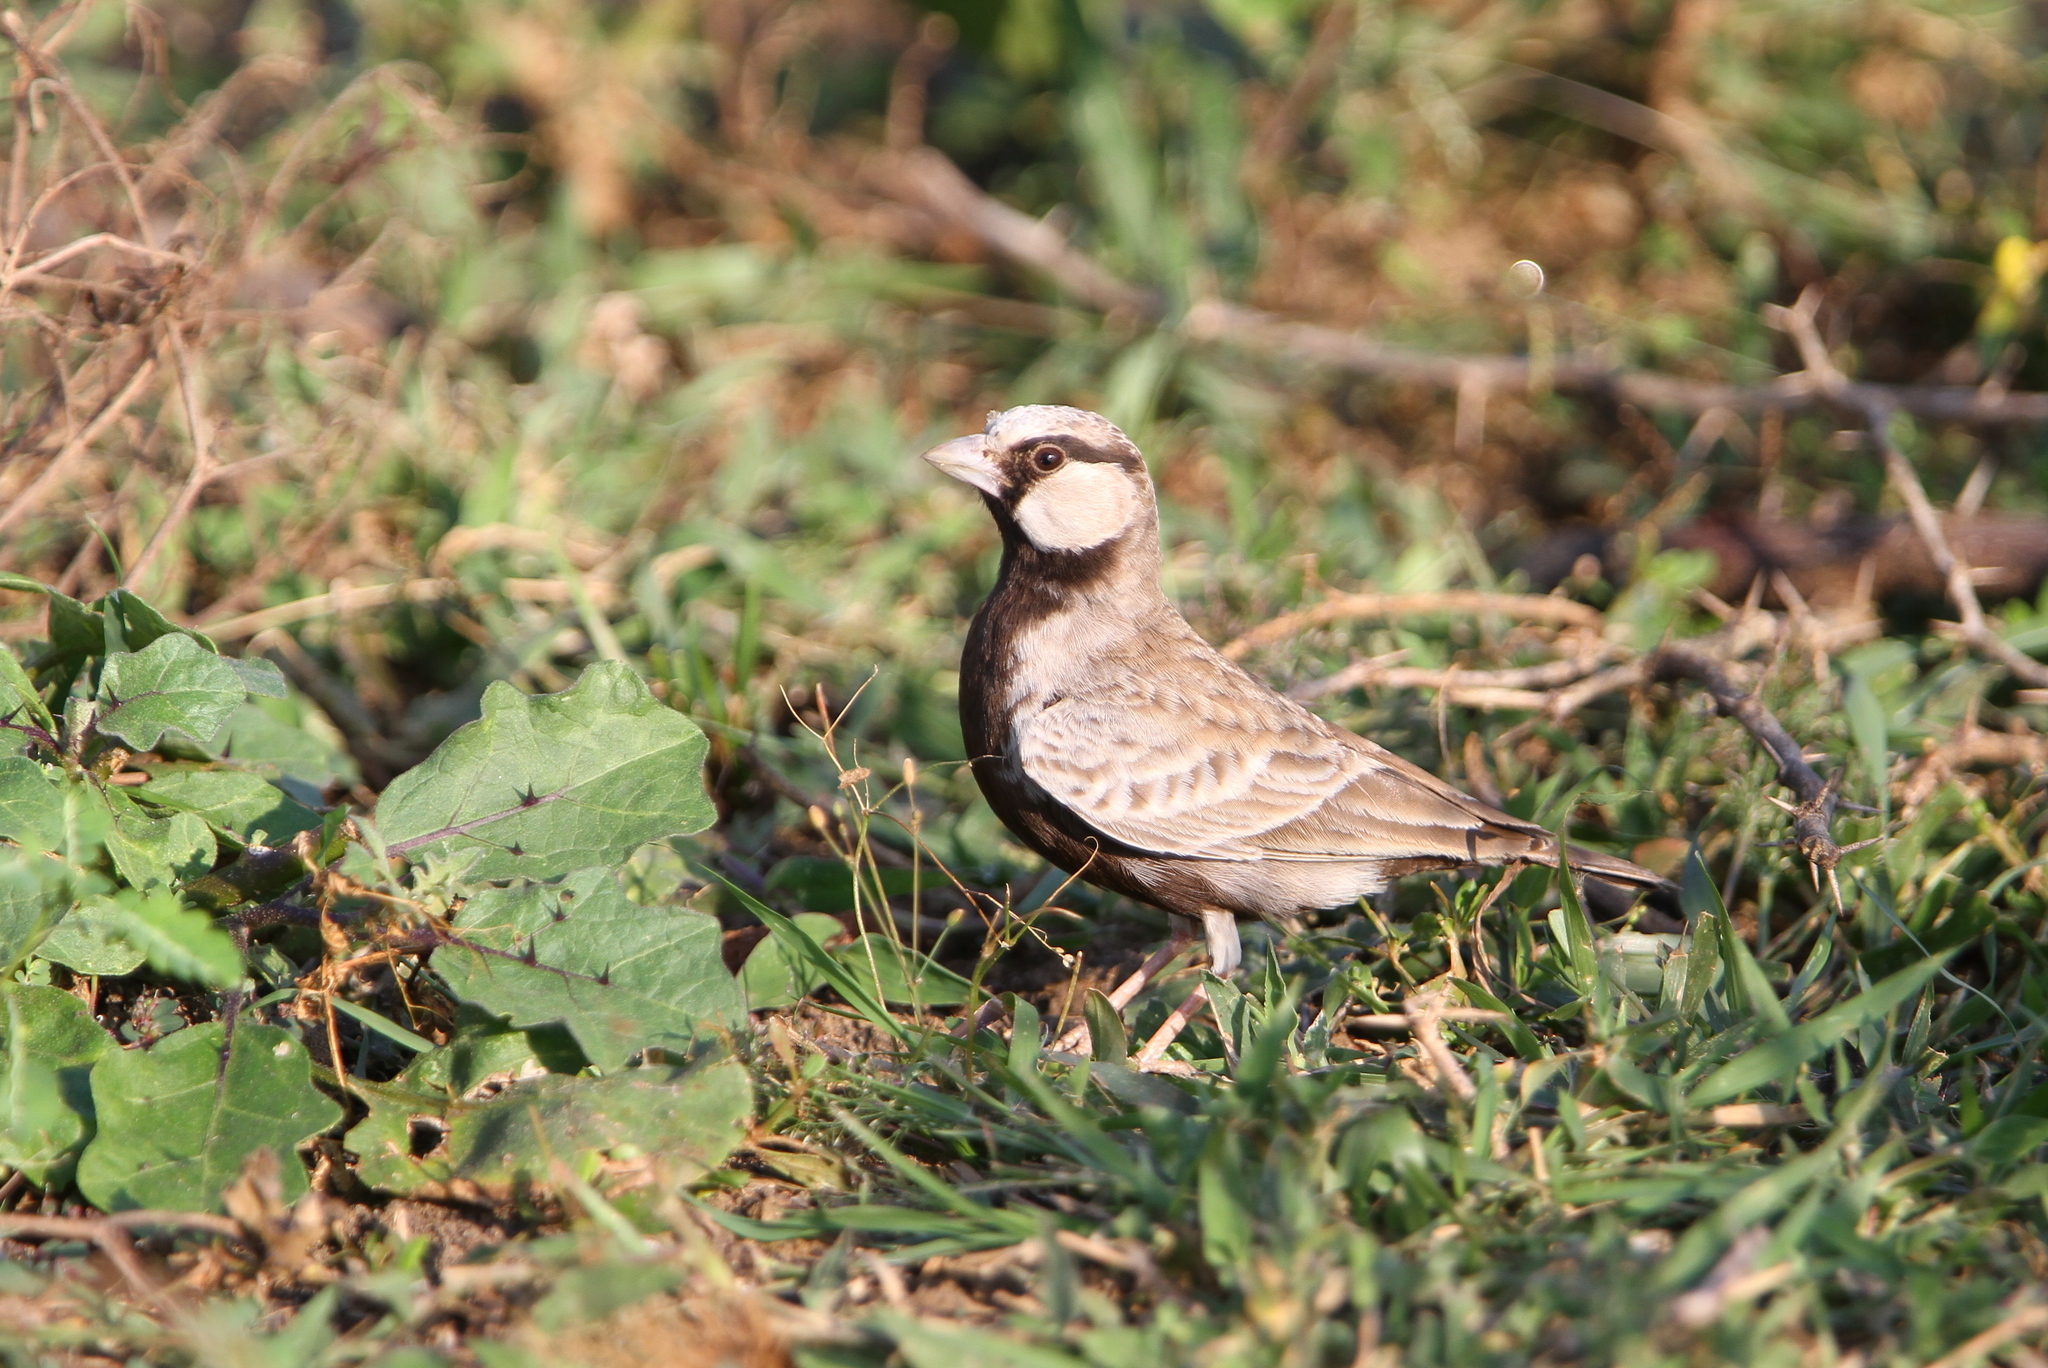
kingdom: Animalia
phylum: Chordata
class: Aves
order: Passeriformes
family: Alaudidae
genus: Eremopterix
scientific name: Eremopterix griseus
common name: Ashy-crowned sparrow-lark
